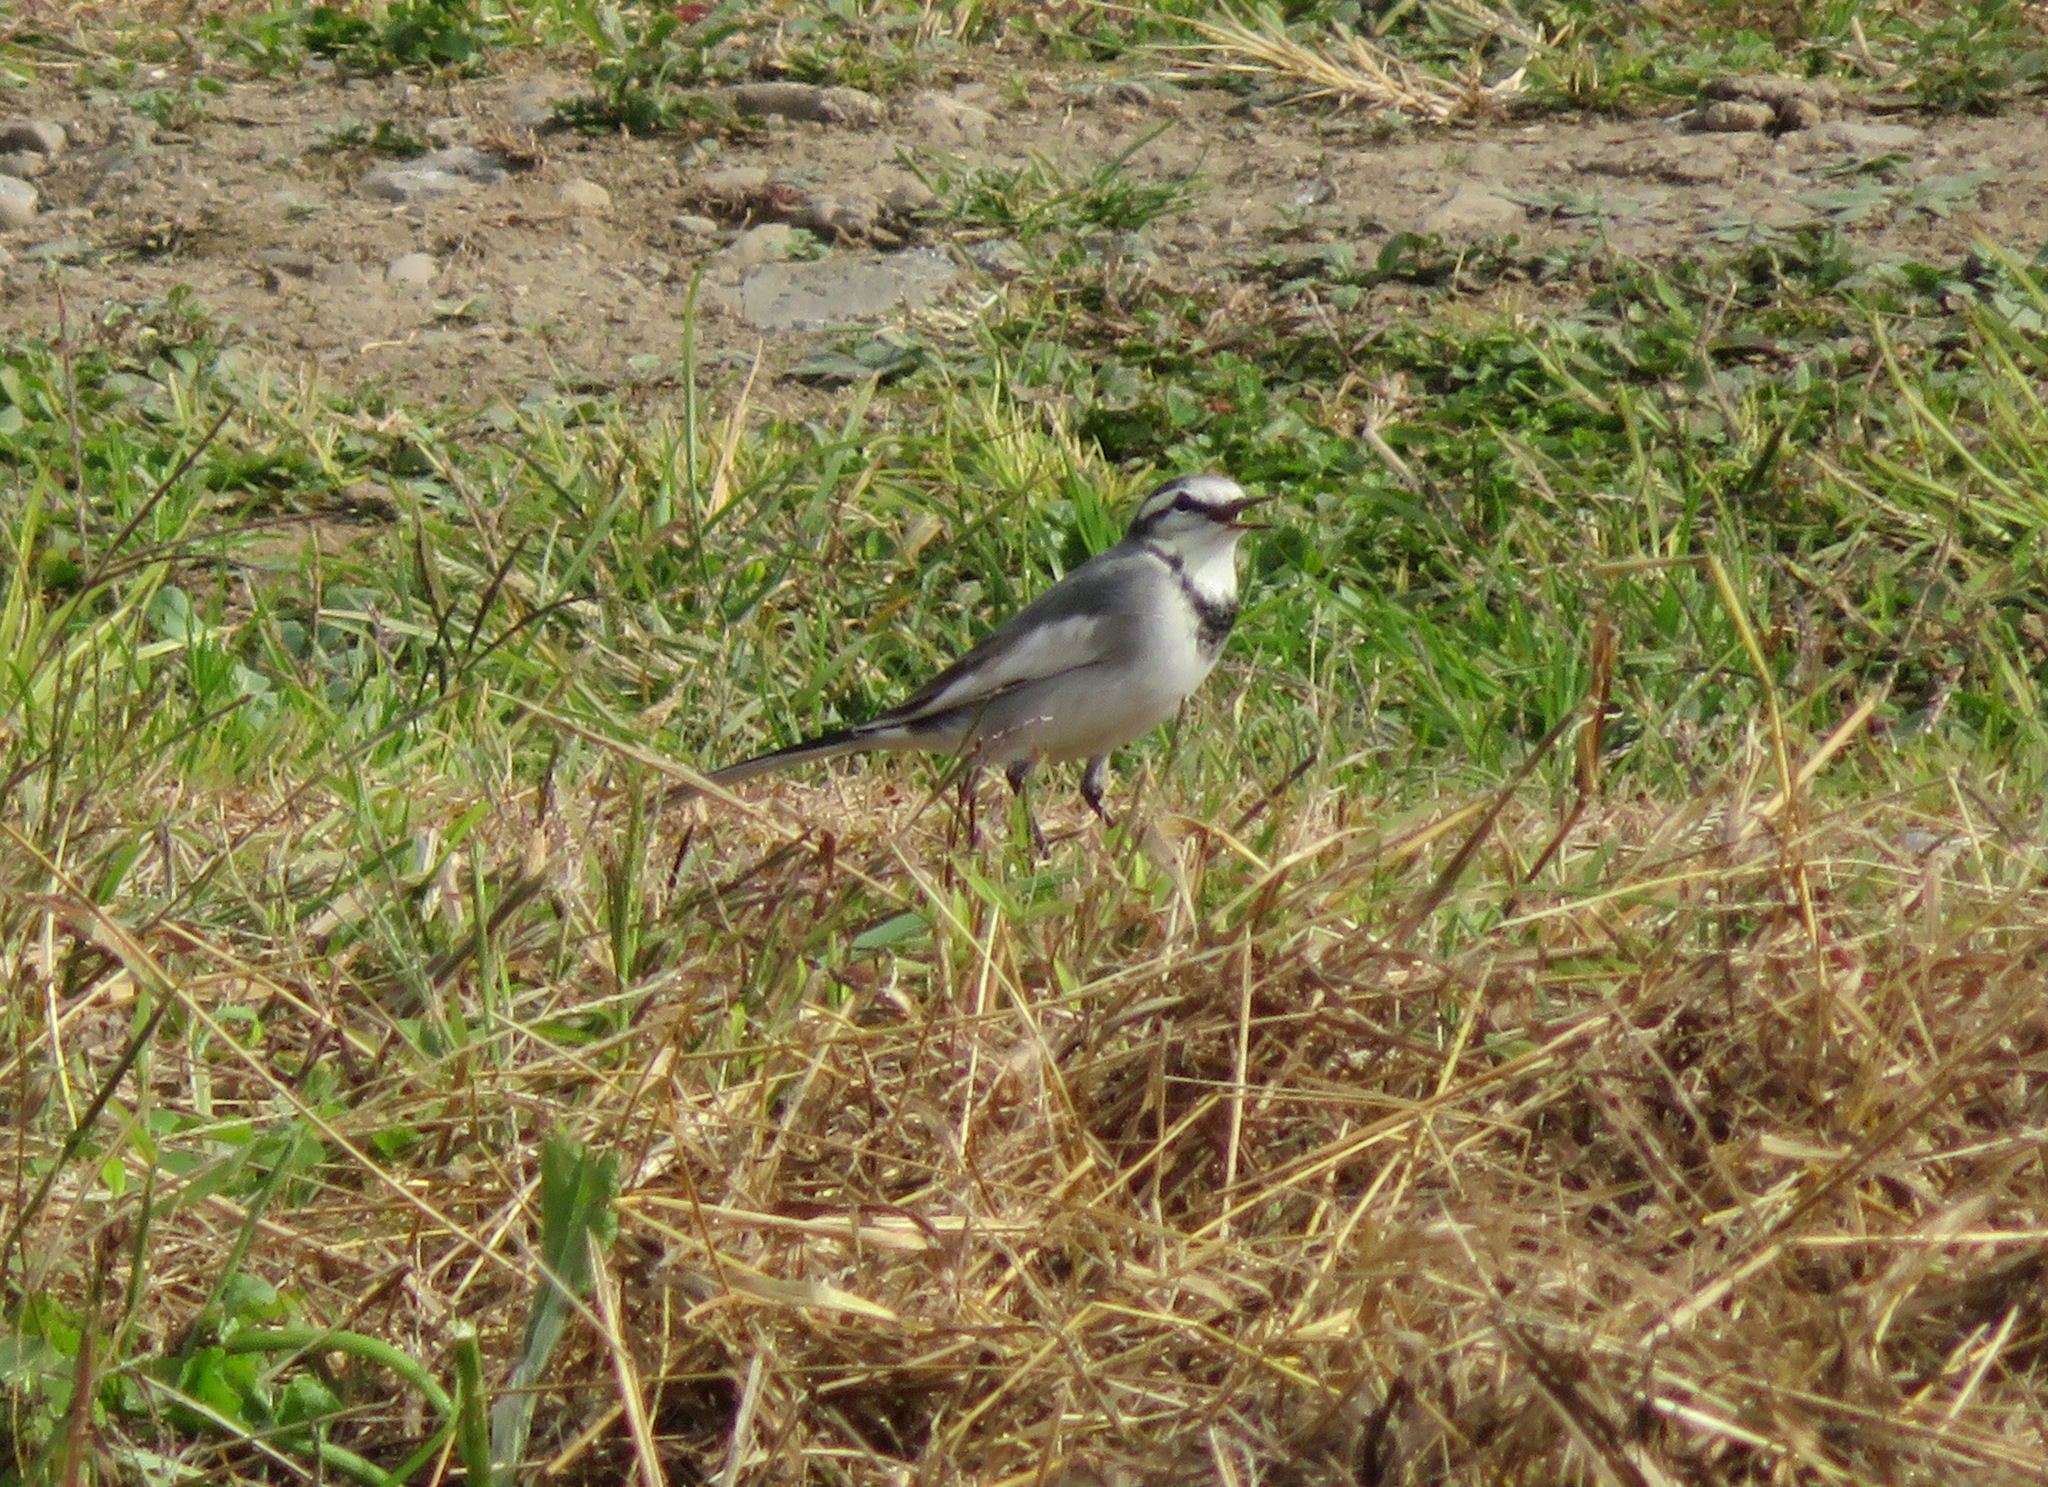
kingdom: Animalia
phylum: Chordata
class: Aves
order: Passeriformes
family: Motacillidae
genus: Motacilla
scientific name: Motacilla alba
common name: White wagtail
